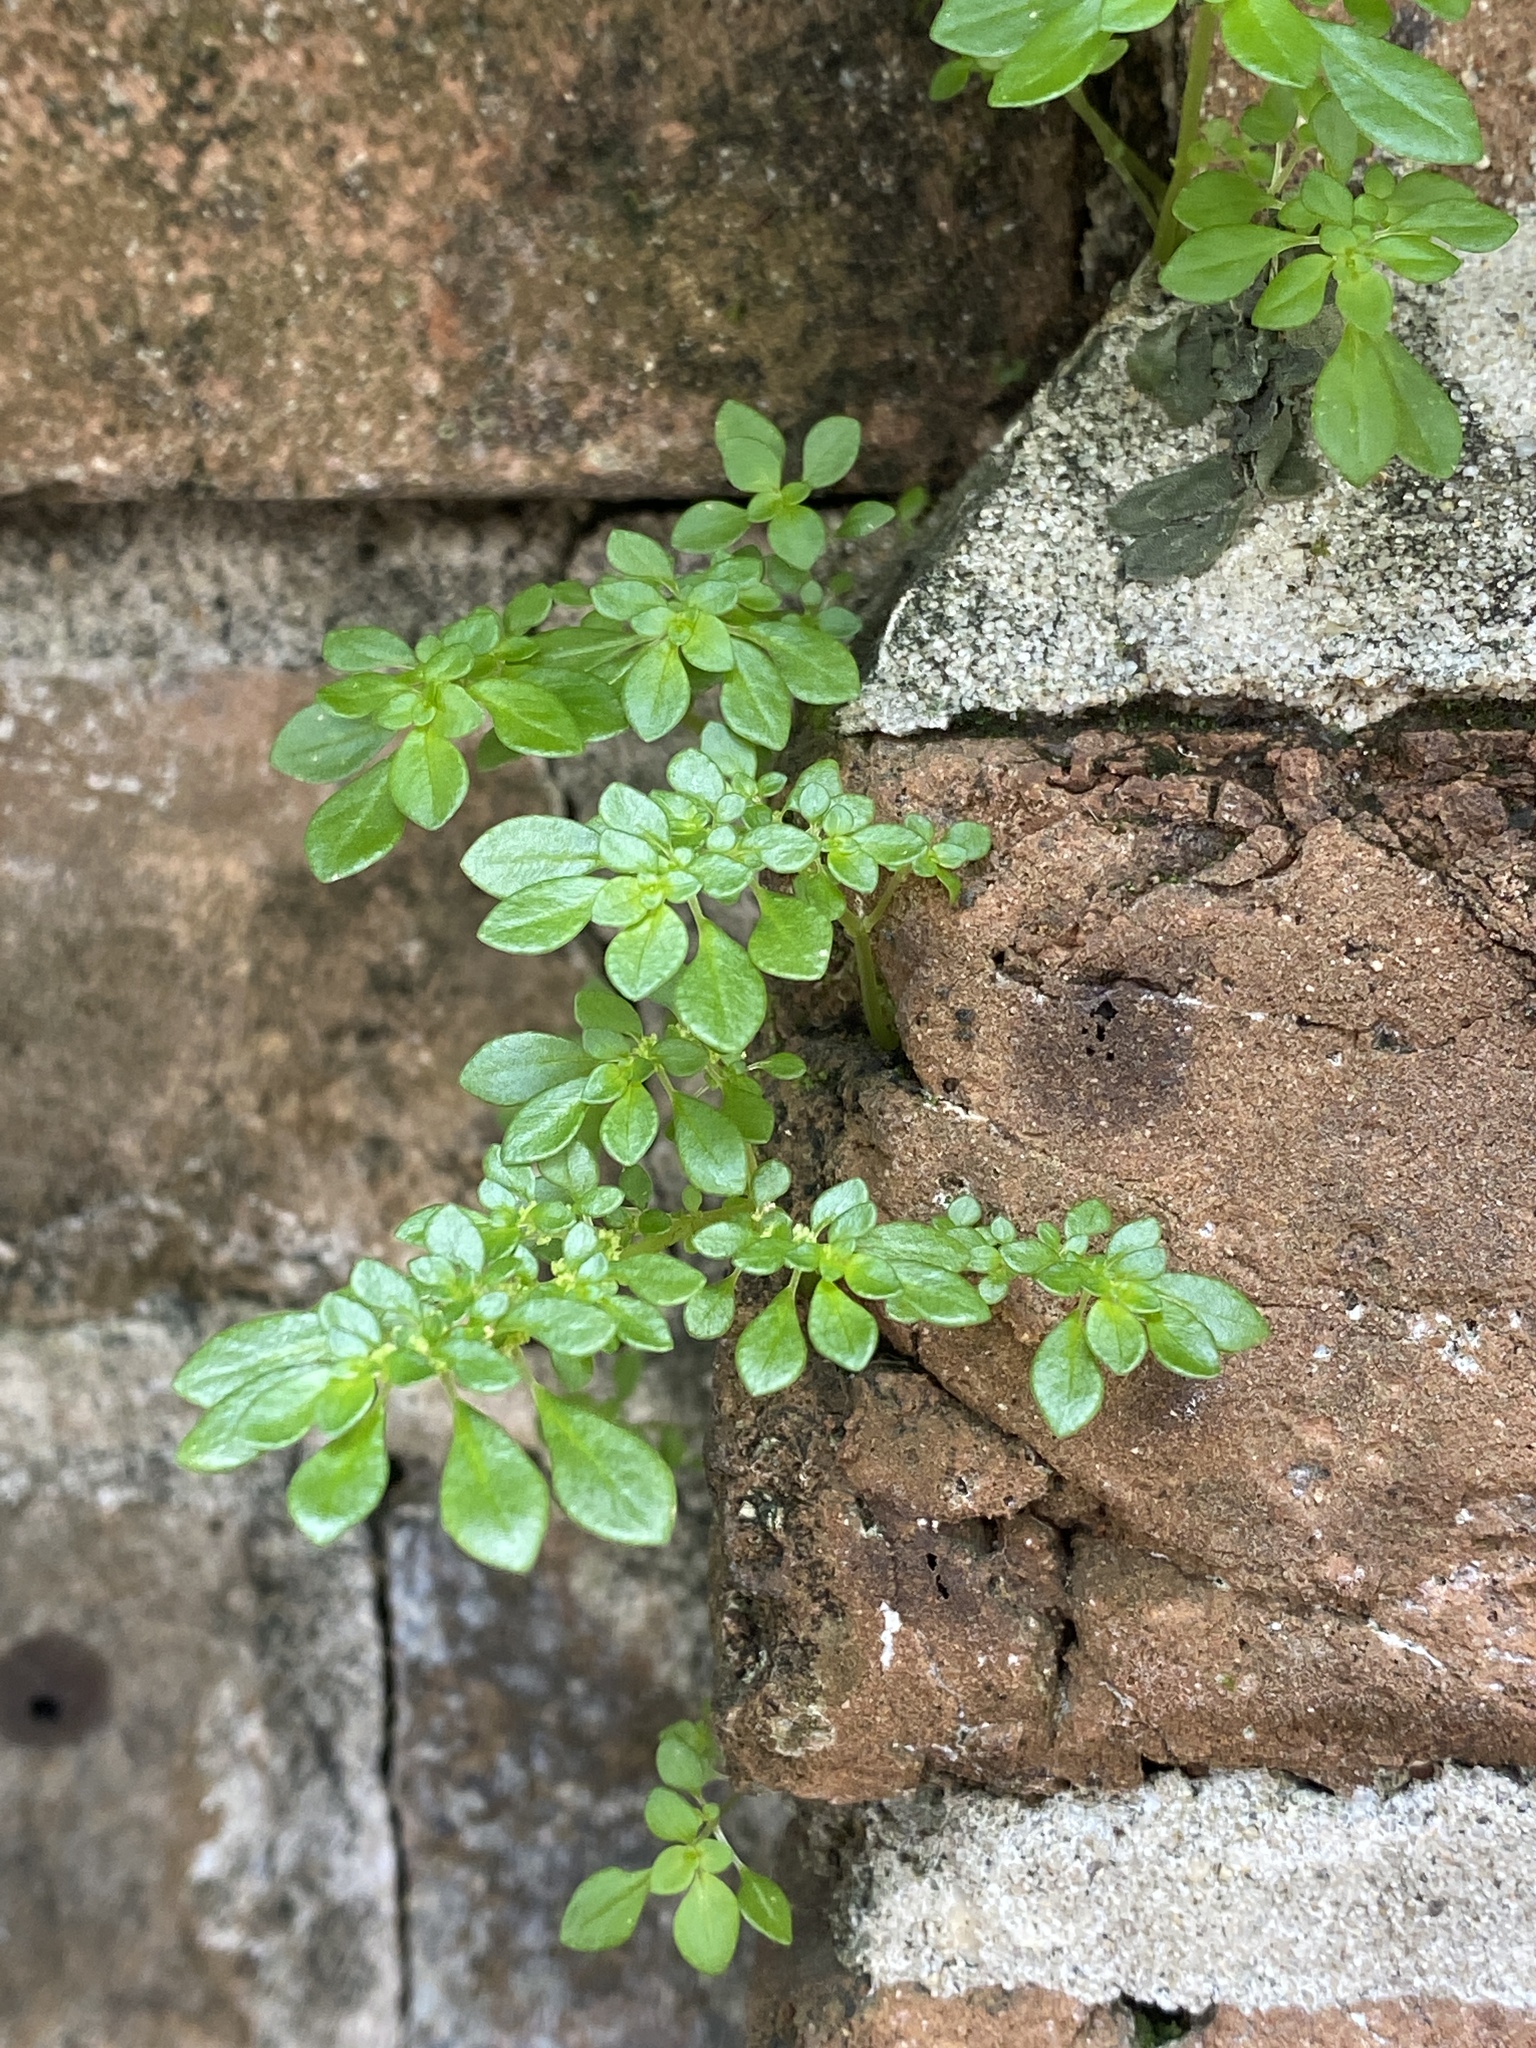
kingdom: Plantae
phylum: Tracheophyta
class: Magnoliopsida
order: Rosales
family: Urticaceae
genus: Pilea
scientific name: Pilea microphylla
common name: Artillery-plant
